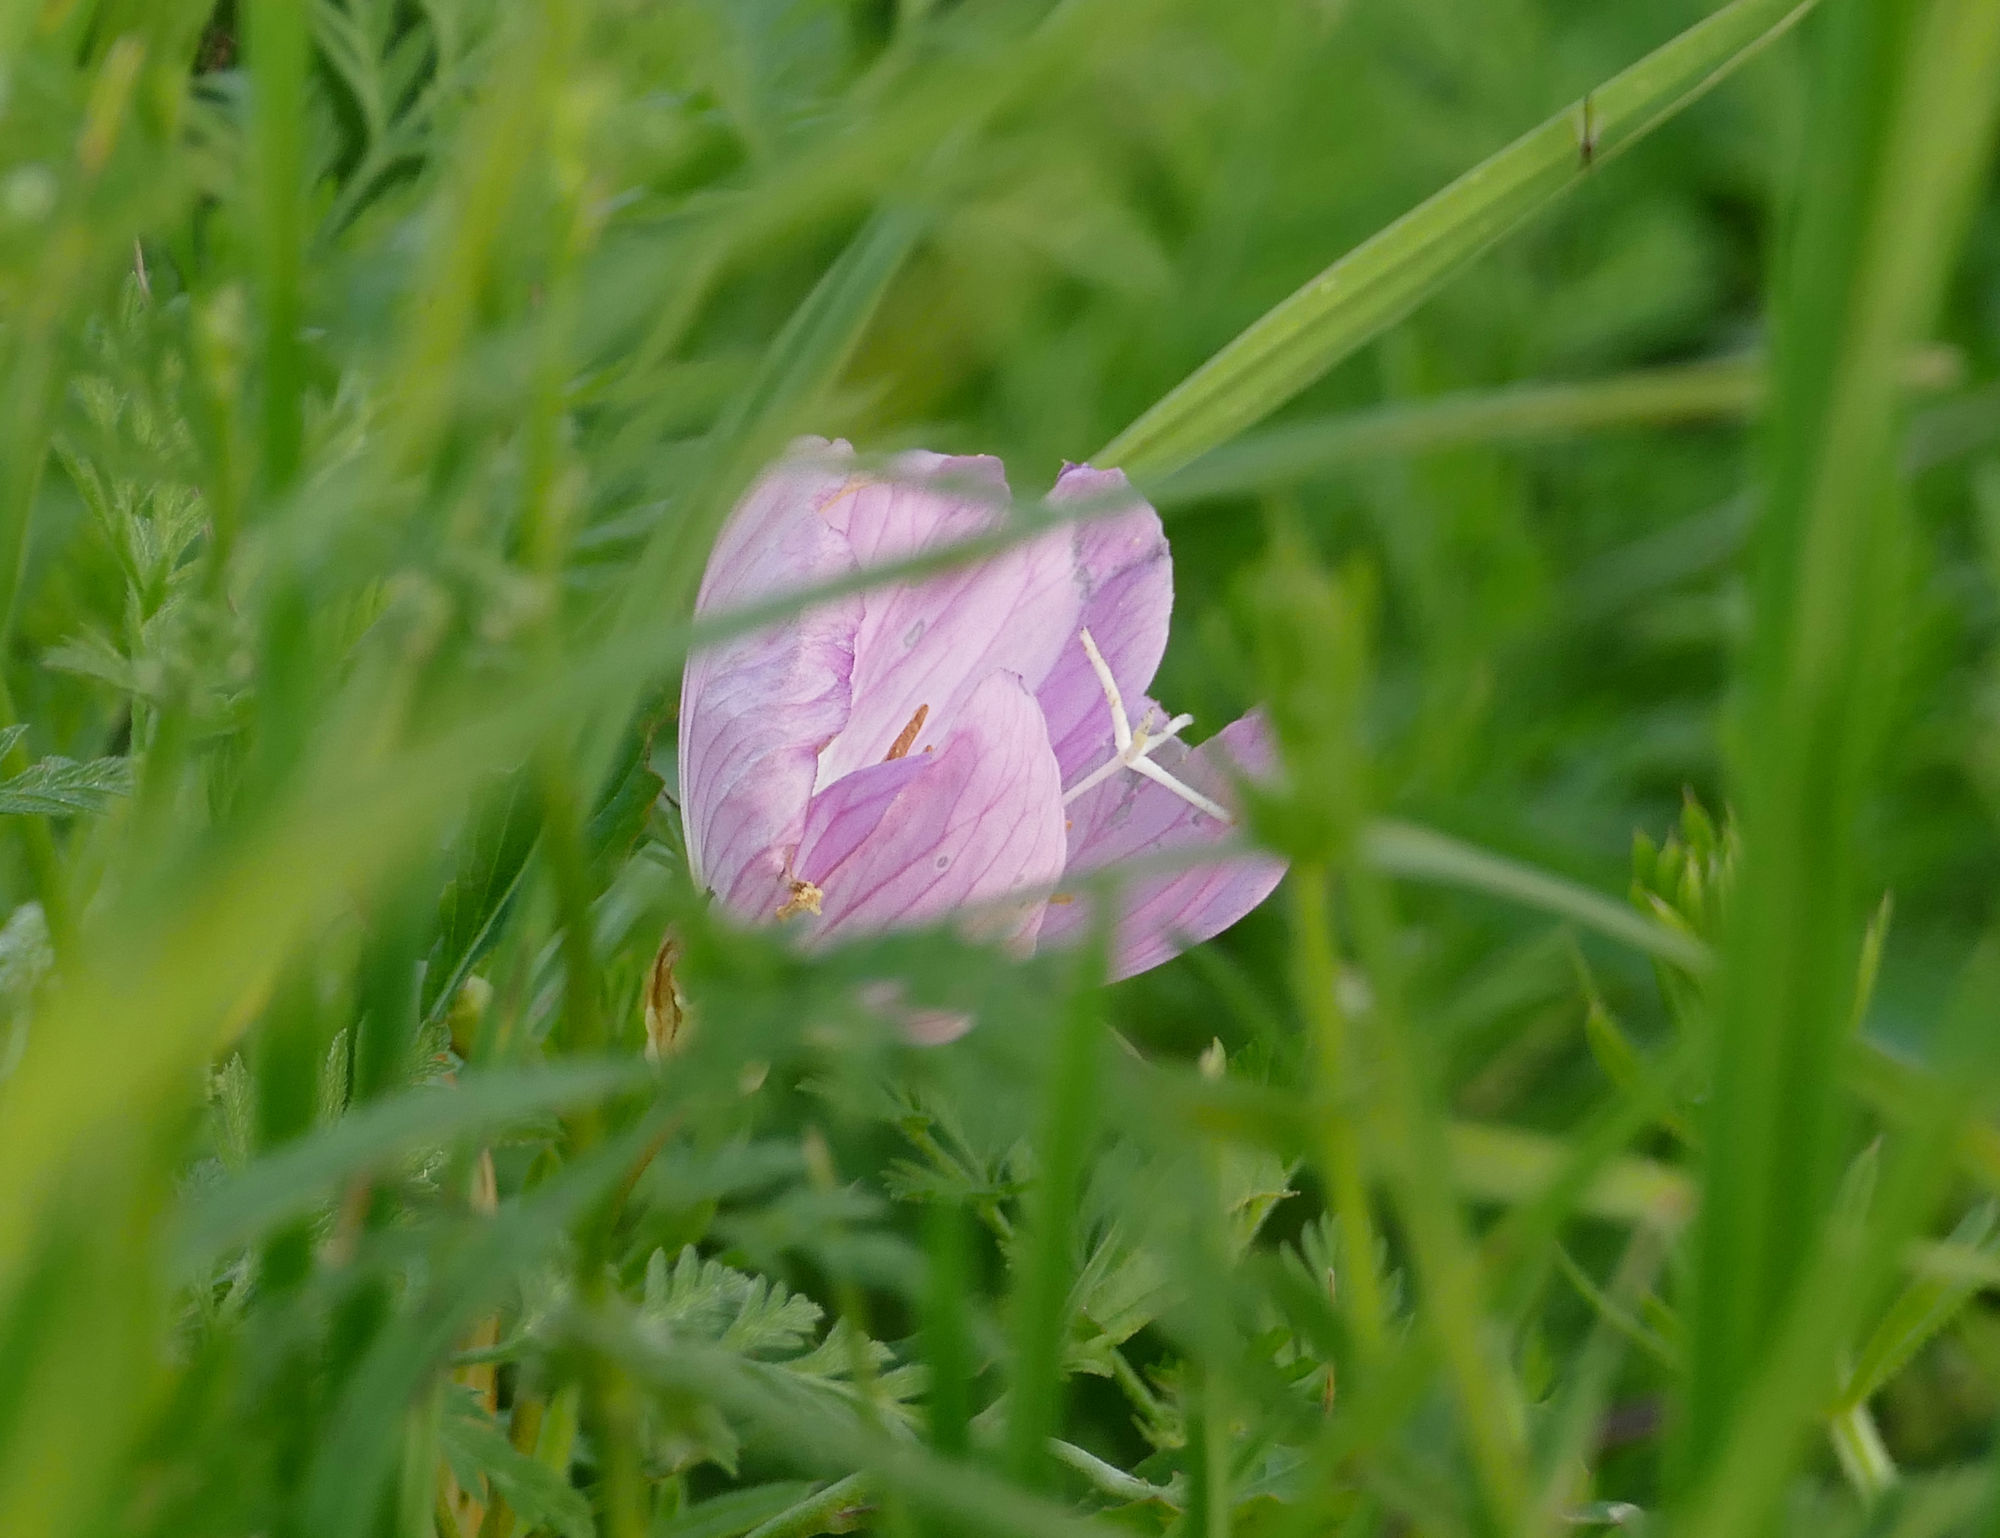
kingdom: Plantae
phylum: Tracheophyta
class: Magnoliopsida
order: Myrtales
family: Onagraceae
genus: Oenothera
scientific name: Oenothera speciosa
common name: White evening-primrose
